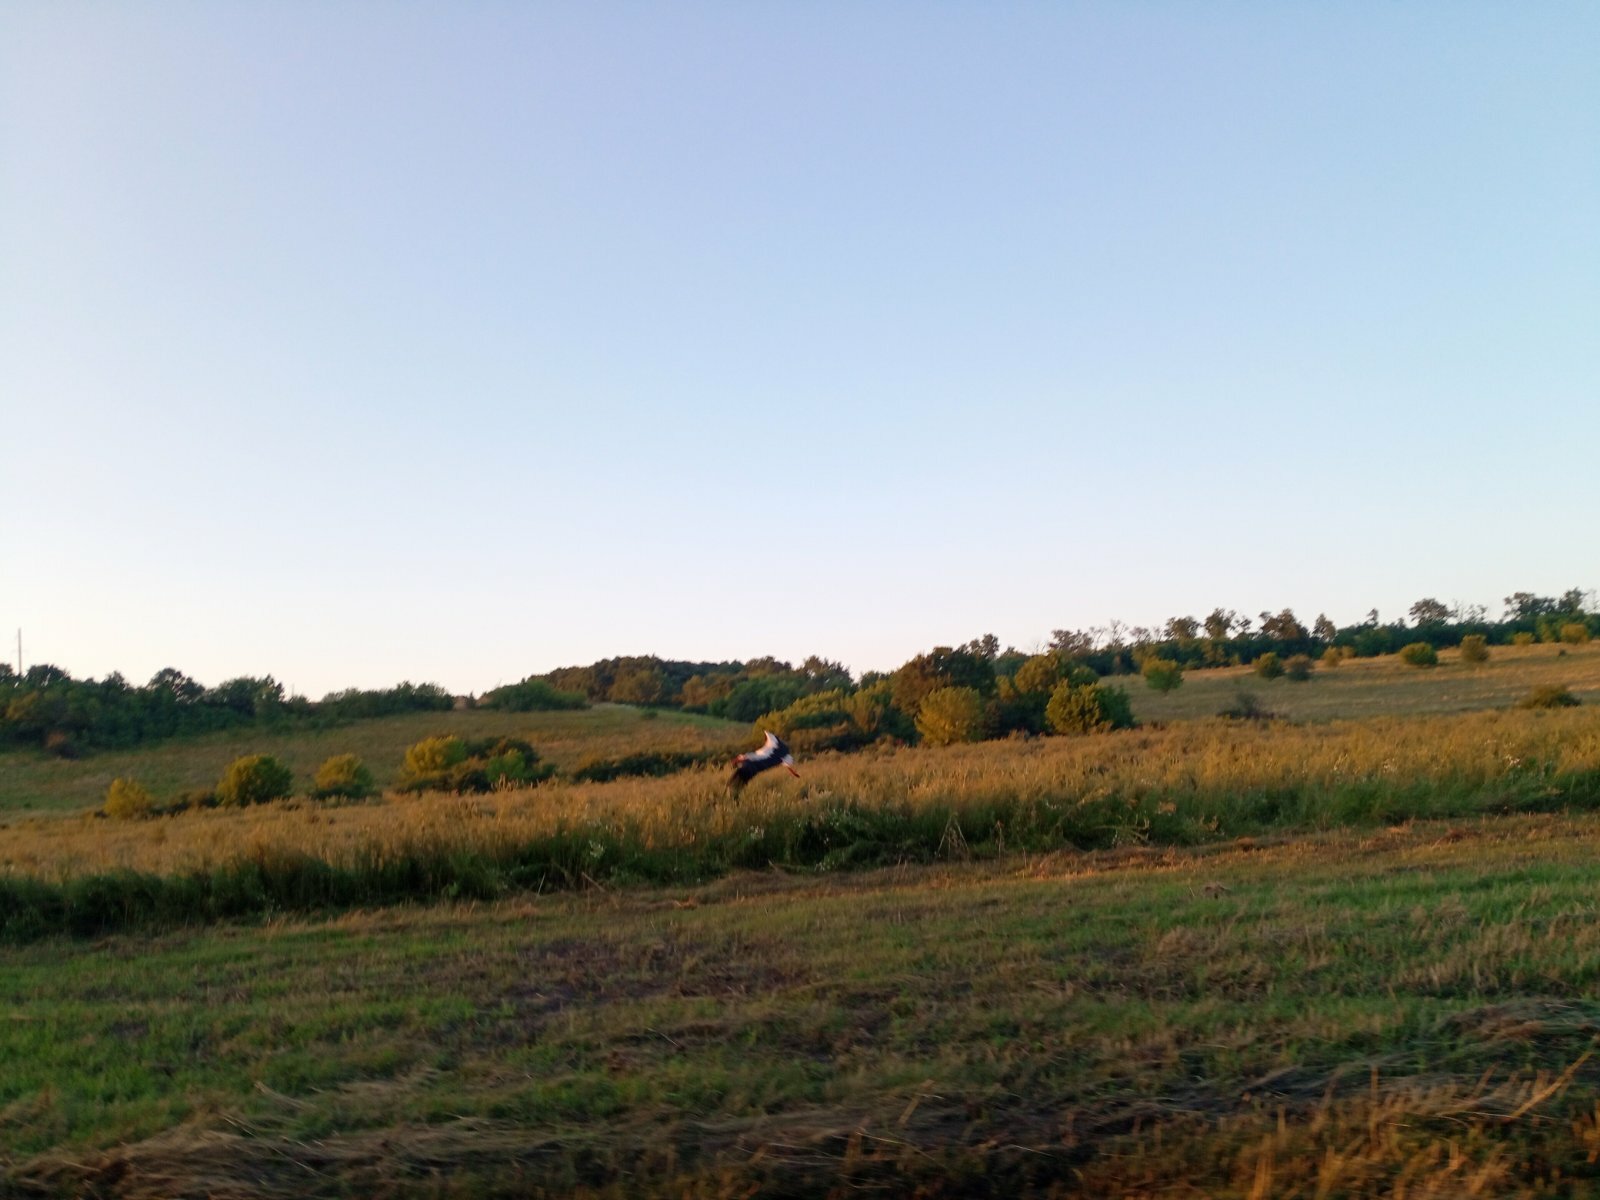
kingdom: Animalia
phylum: Chordata
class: Aves
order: Ciconiiformes
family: Ciconiidae
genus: Ciconia
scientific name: Ciconia ciconia
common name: White stork
